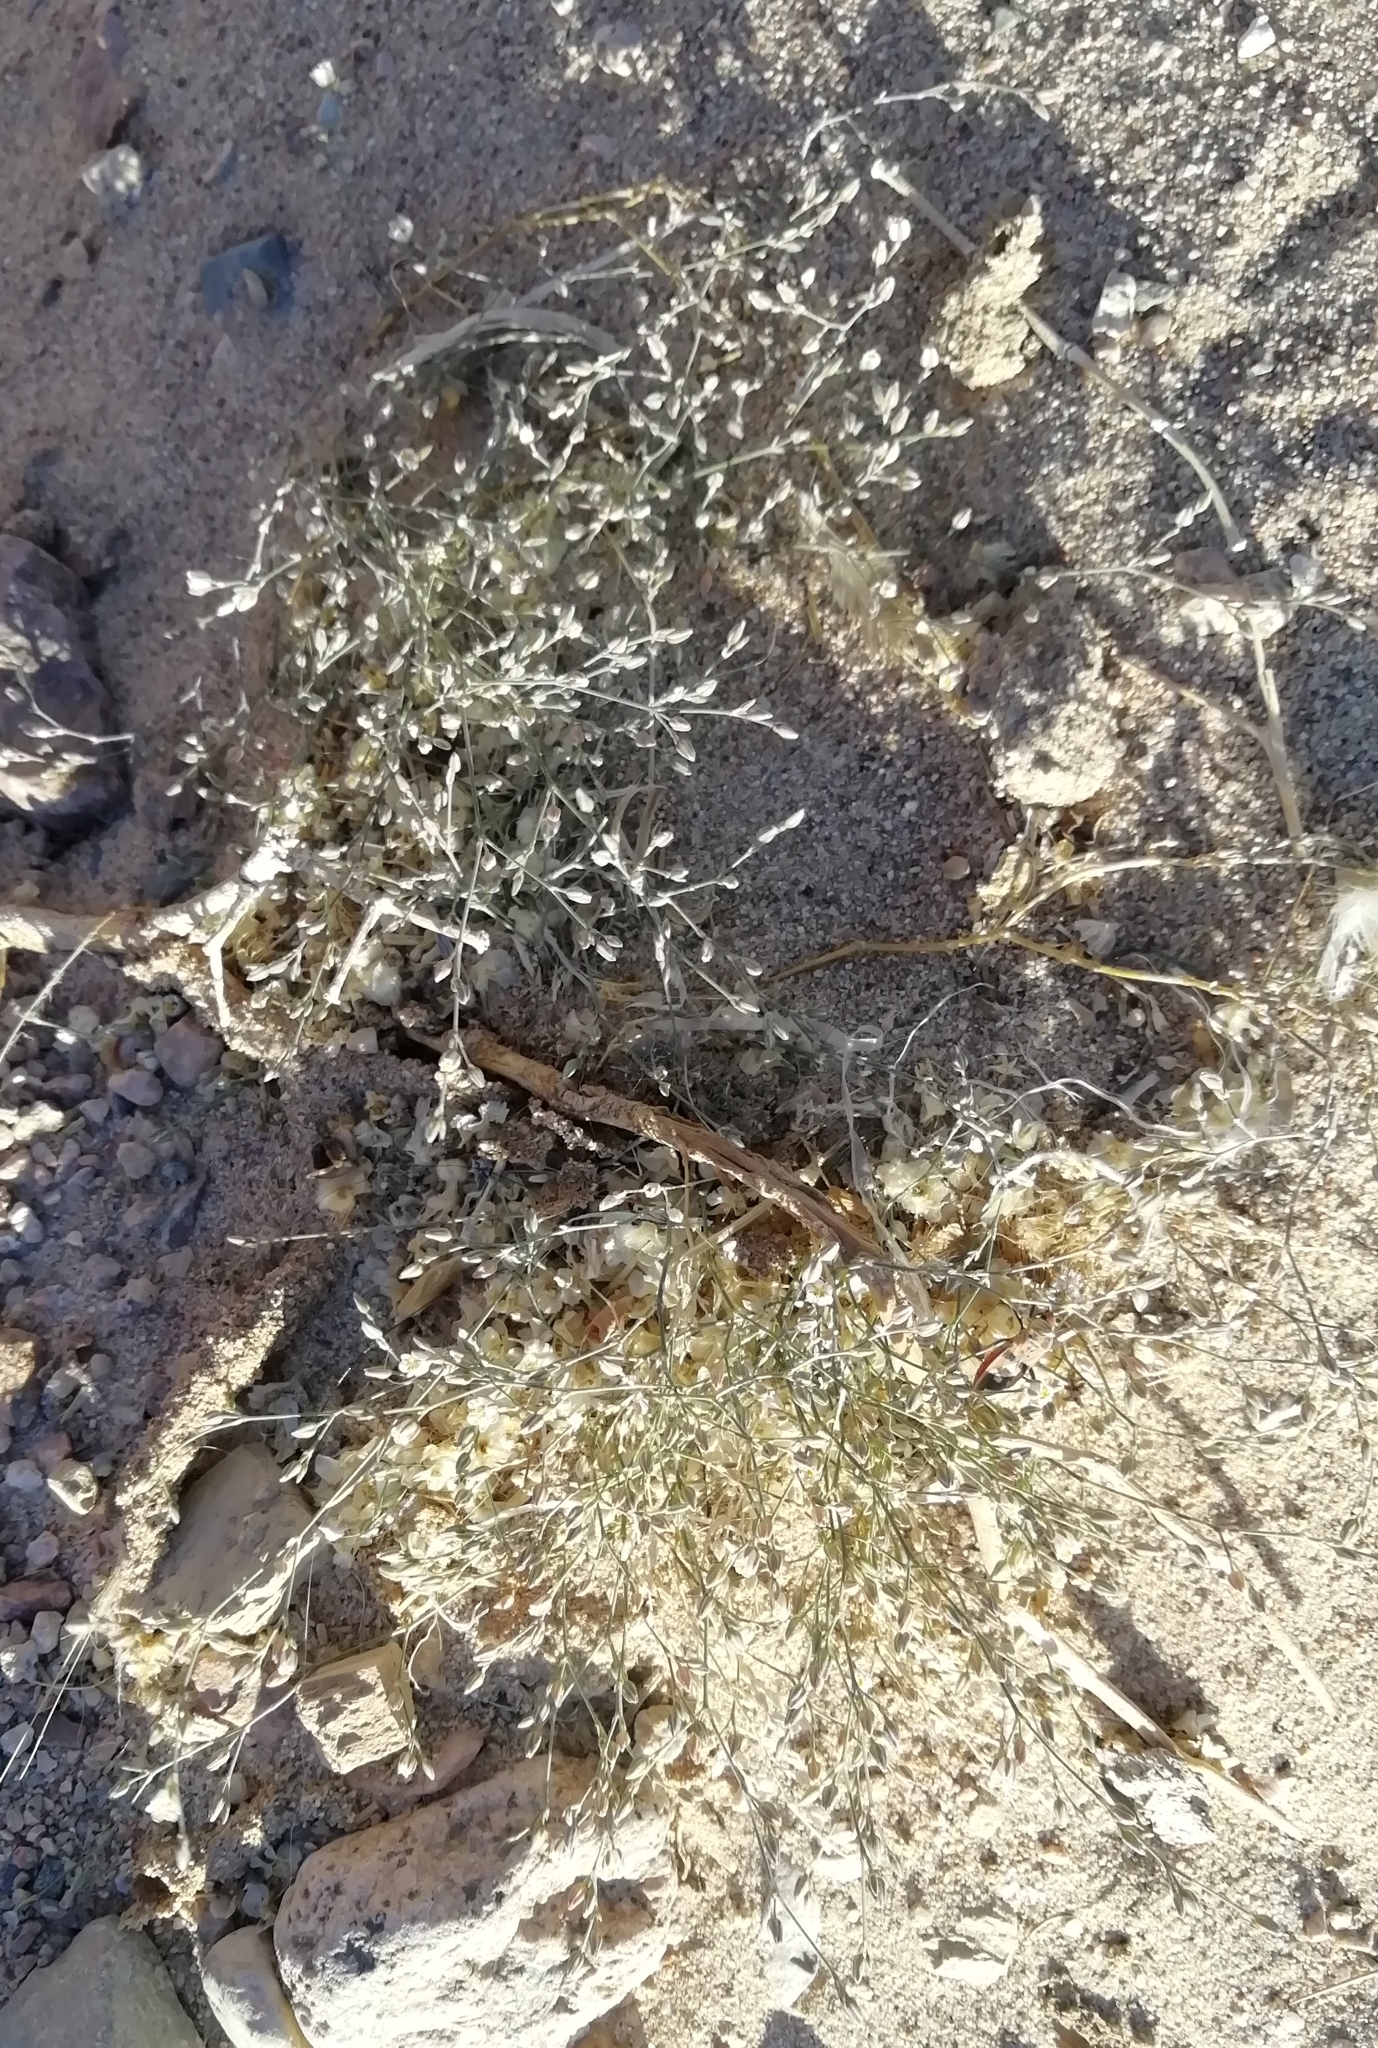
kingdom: Plantae
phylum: Tracheophyta
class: Magnoliopsida
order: Caryophyllales
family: Caryophyllaceae
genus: Polycarpaea
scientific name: Polycarpaea robbairea
